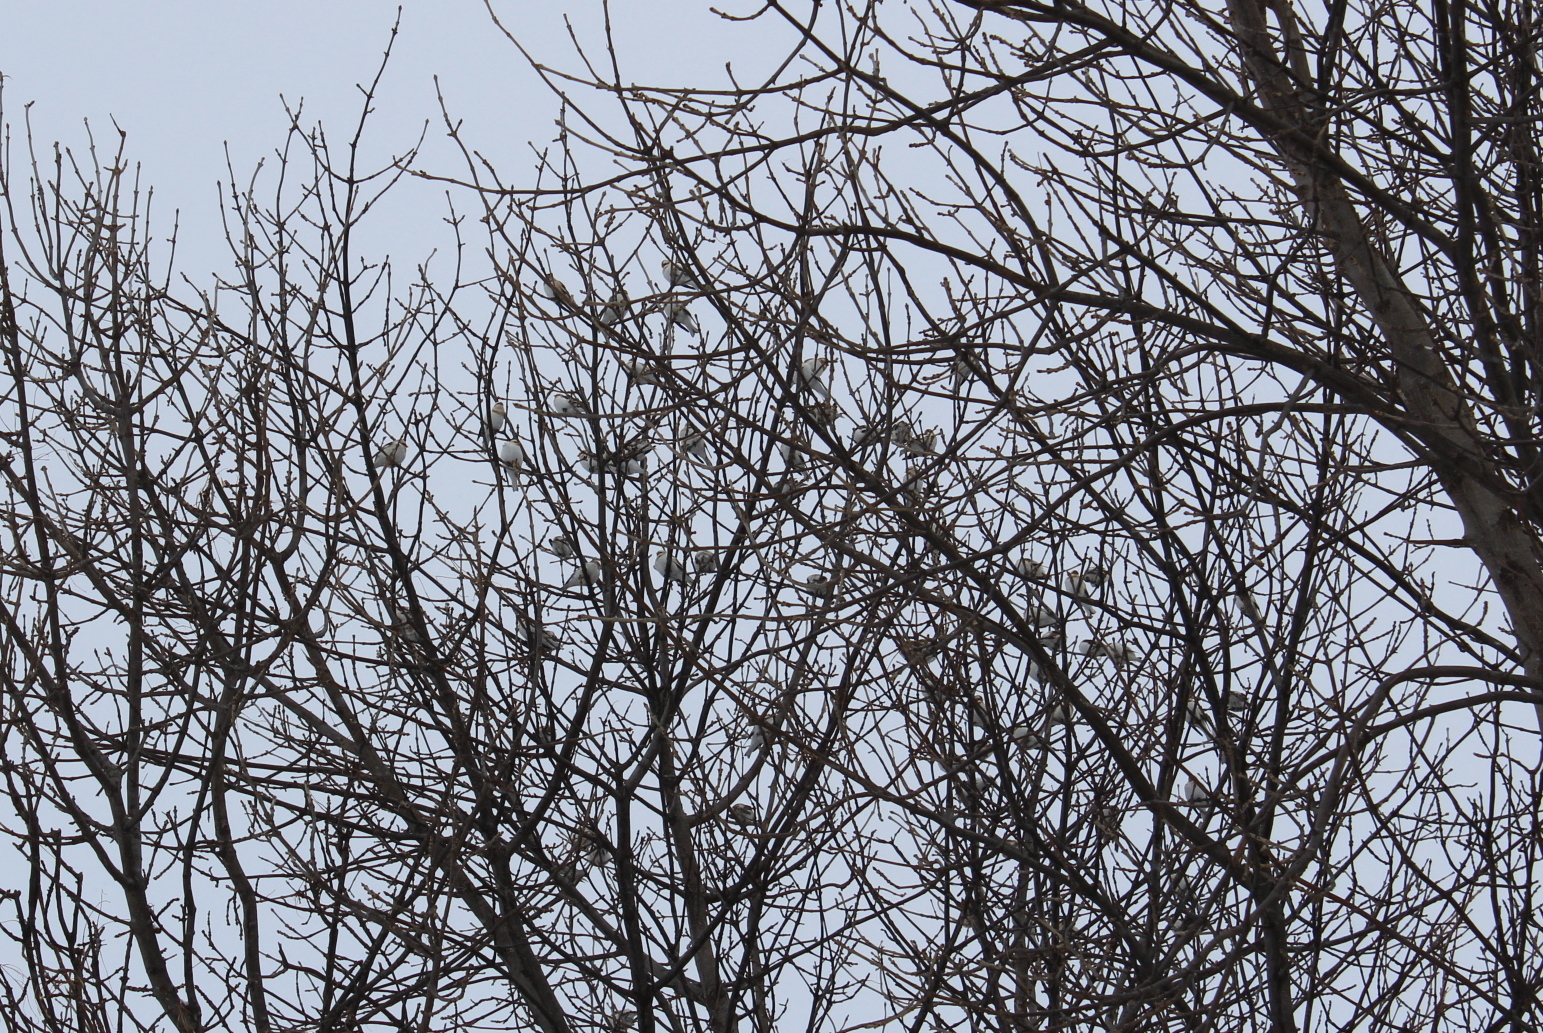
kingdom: Animalia
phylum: Chordata
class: Aves
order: Passeriformes
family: Calcariidae
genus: Plectrophenax
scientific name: Plectrophenax nivalis
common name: Snow bunting
